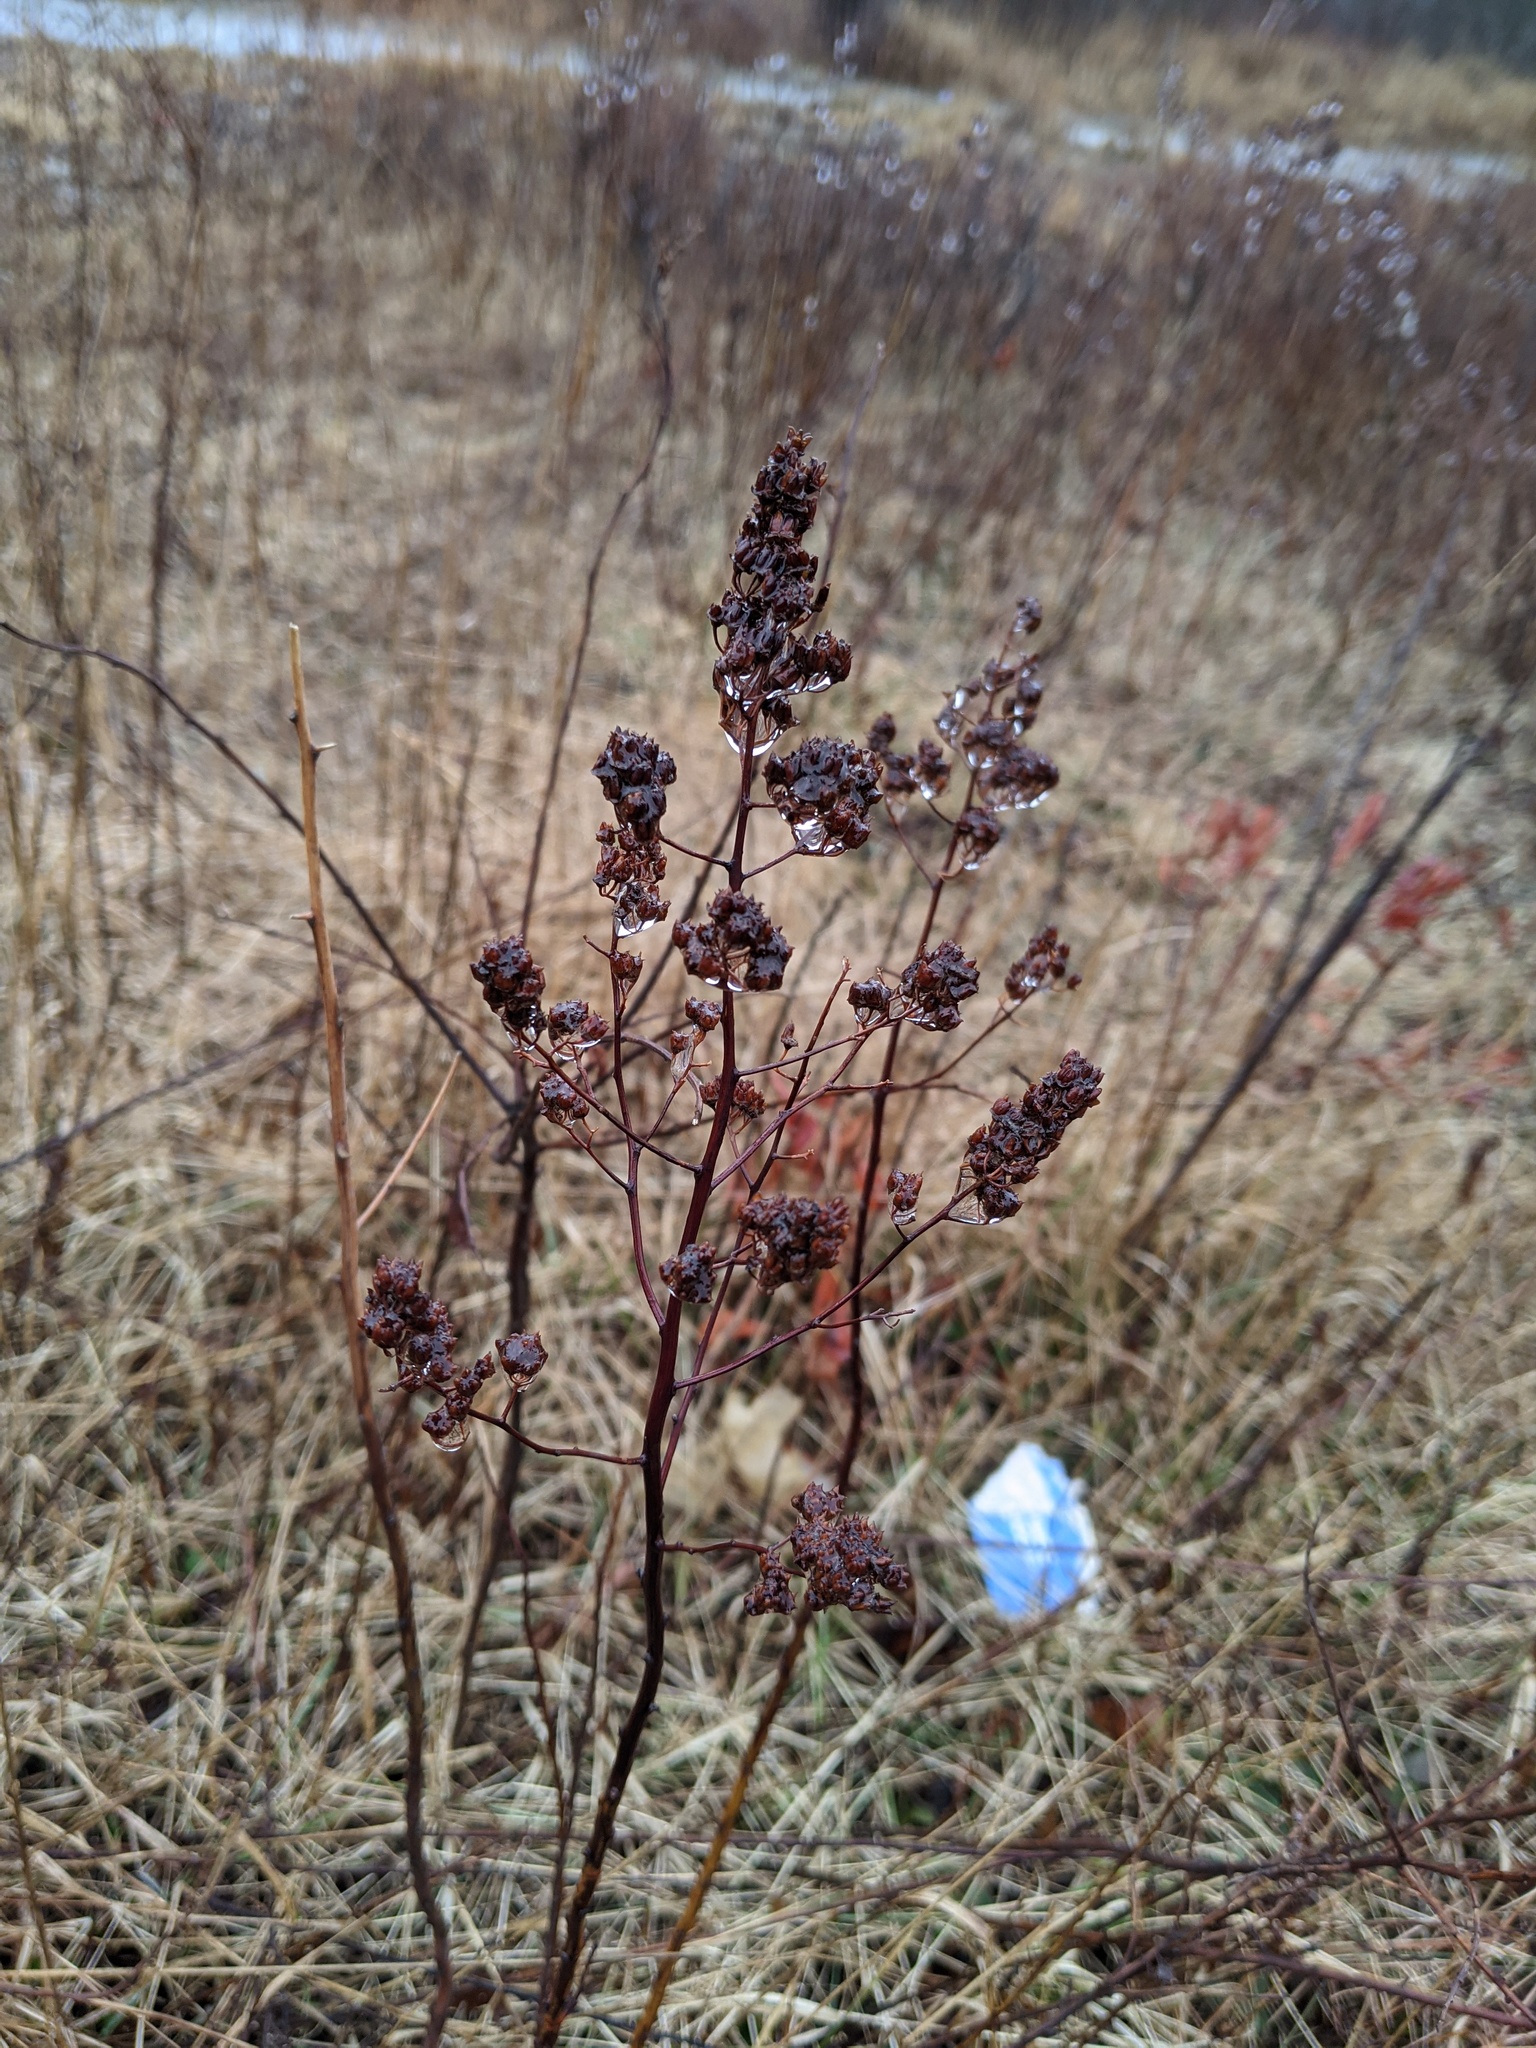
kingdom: Plantae
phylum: Tracheophyta
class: Magnoliopsida
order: Rosales
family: Rosaceae
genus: Spiraea
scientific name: Spiraea alba
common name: Pale bridewort
